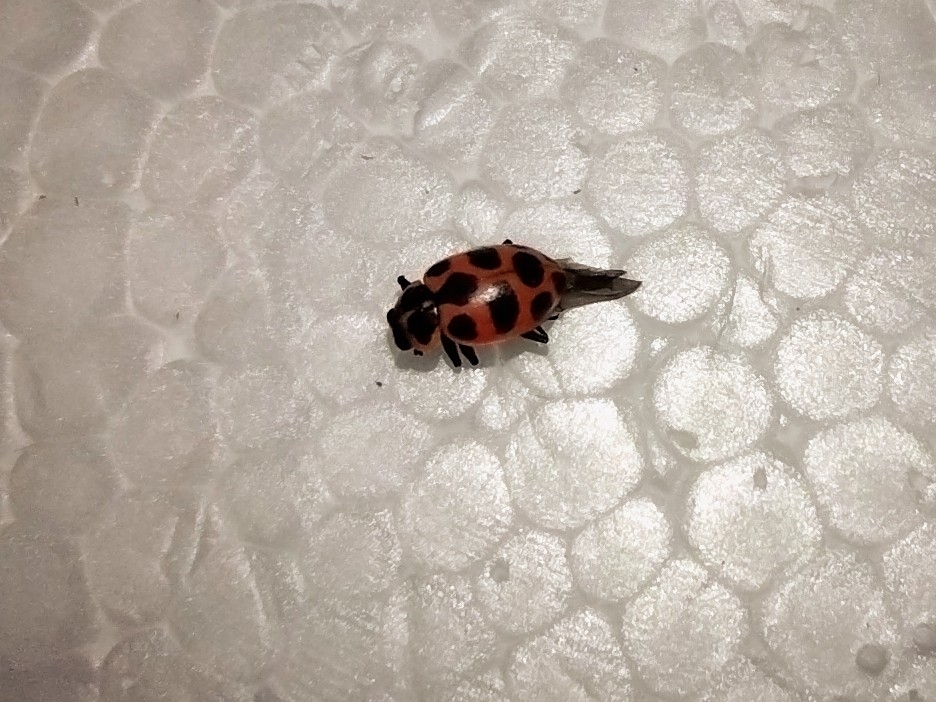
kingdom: Animalia
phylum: Arthropoda
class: Insecta
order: Coleoptera
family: Coccinellidae
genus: Coleomegilla
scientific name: Coleomegilla maculata
